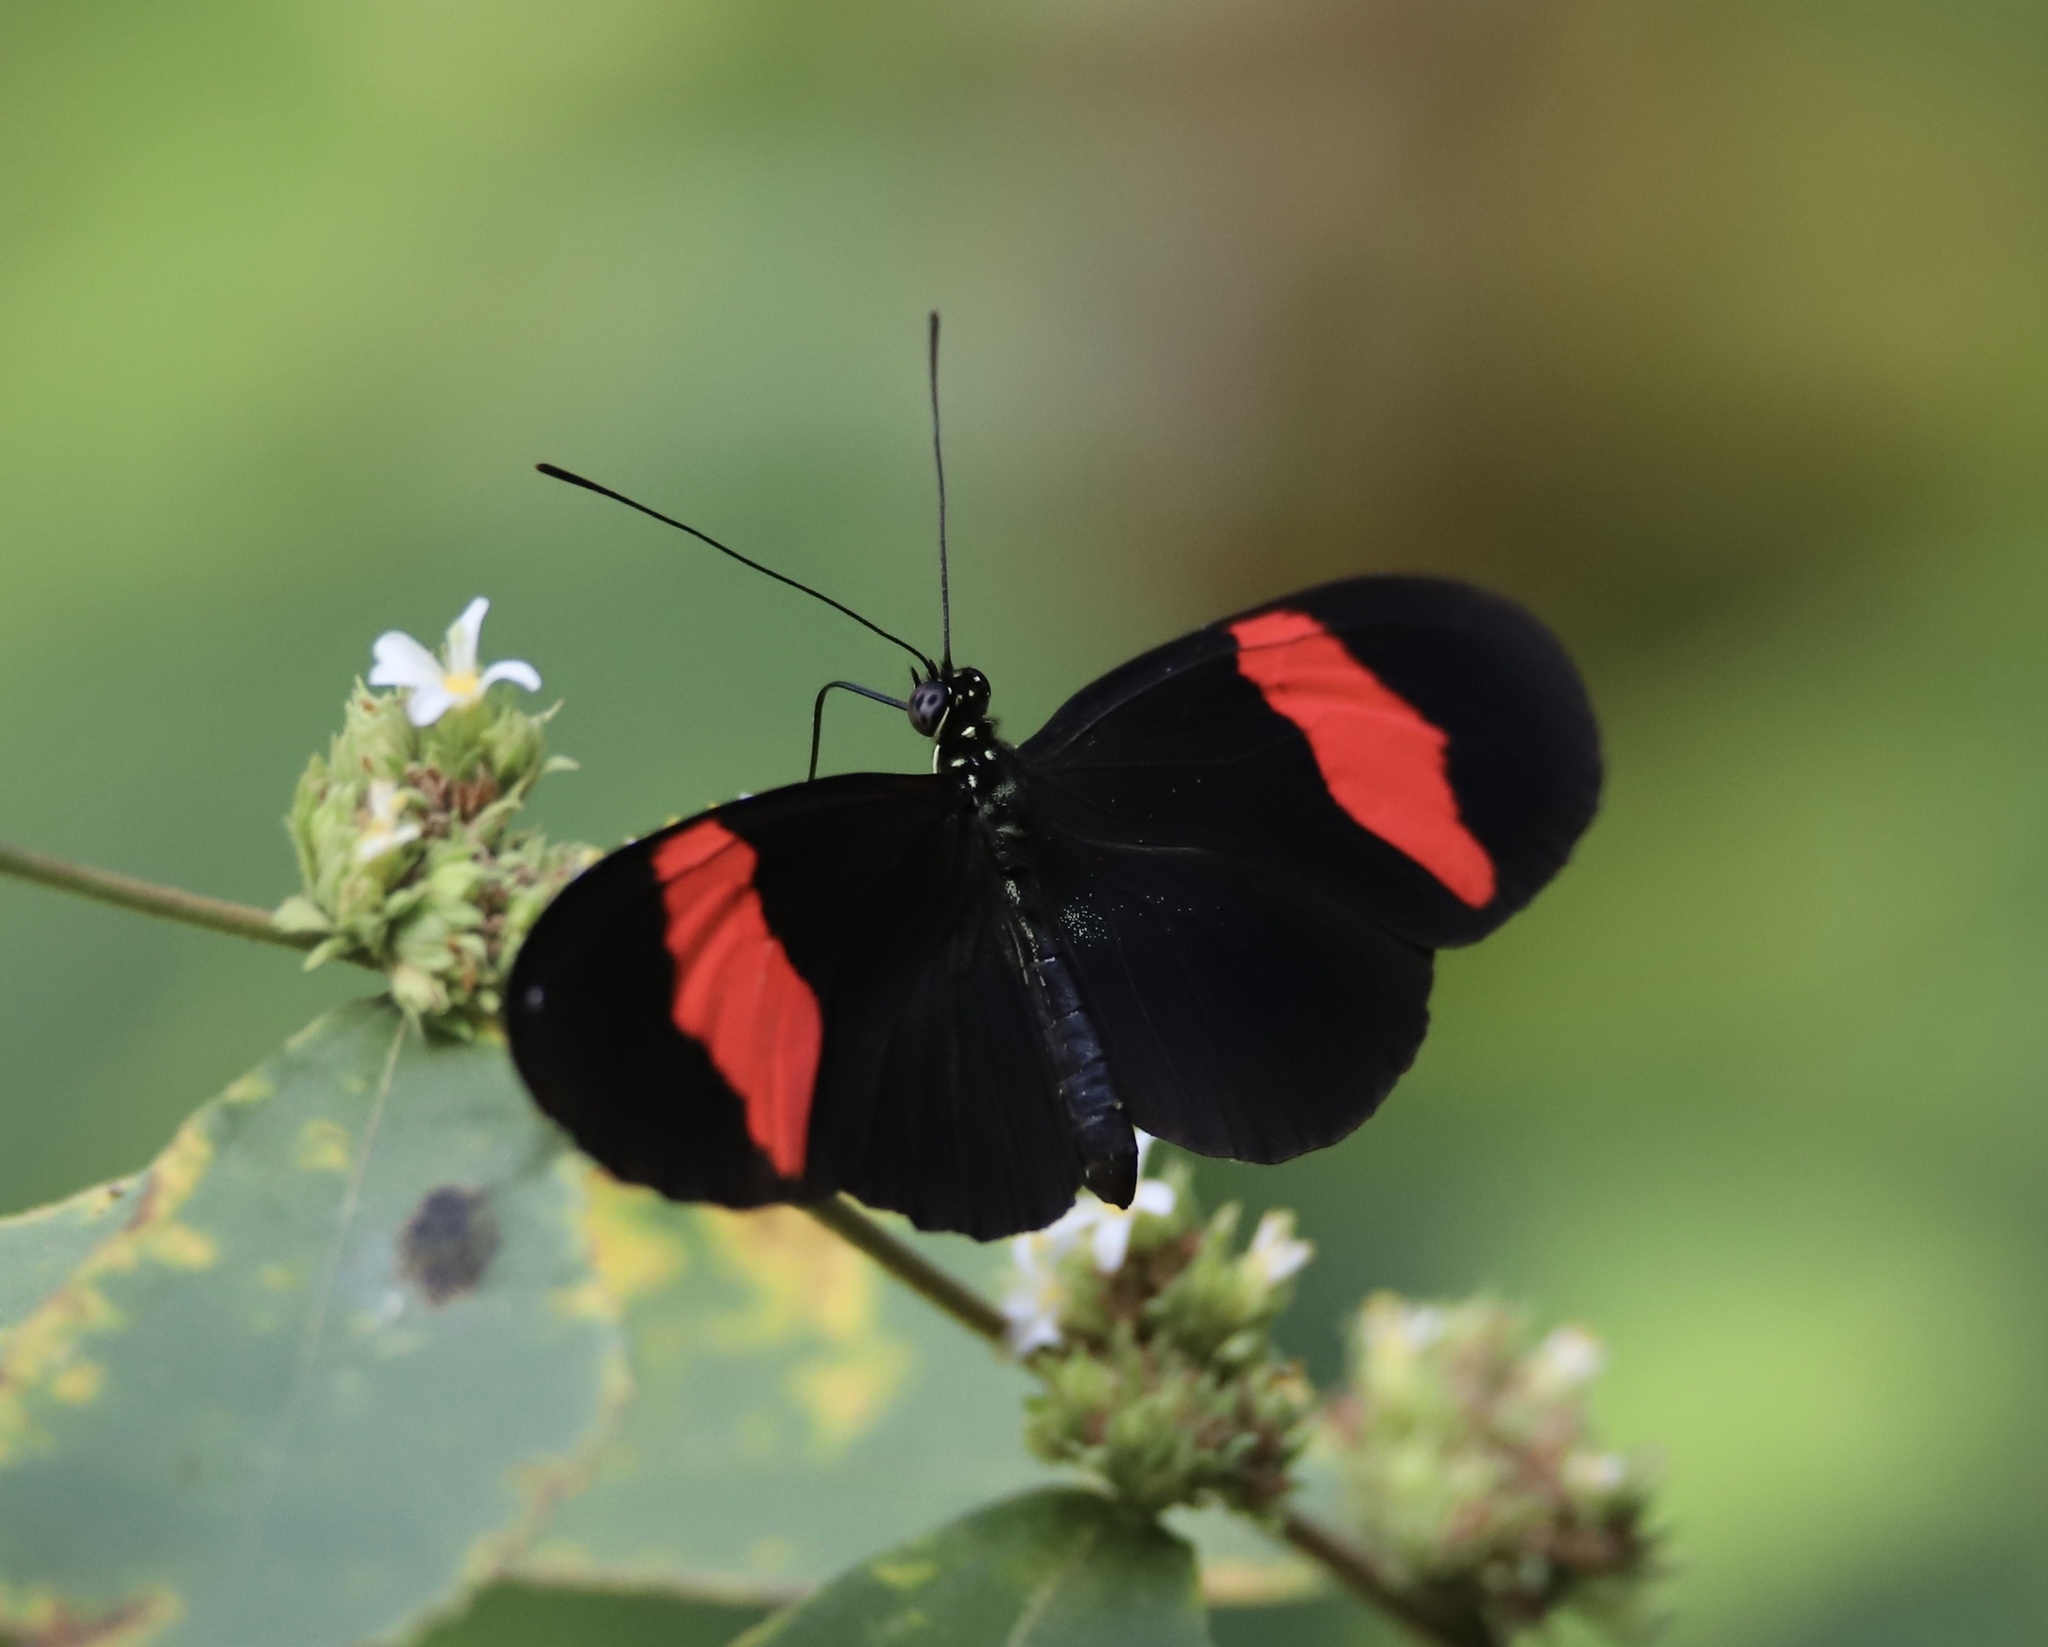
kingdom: Animalia
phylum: Arthropoda
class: Insecta
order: Lepidoptera
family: Nymphalidae
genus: Heliconius
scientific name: Heliconius erato
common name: Common patch longwing
